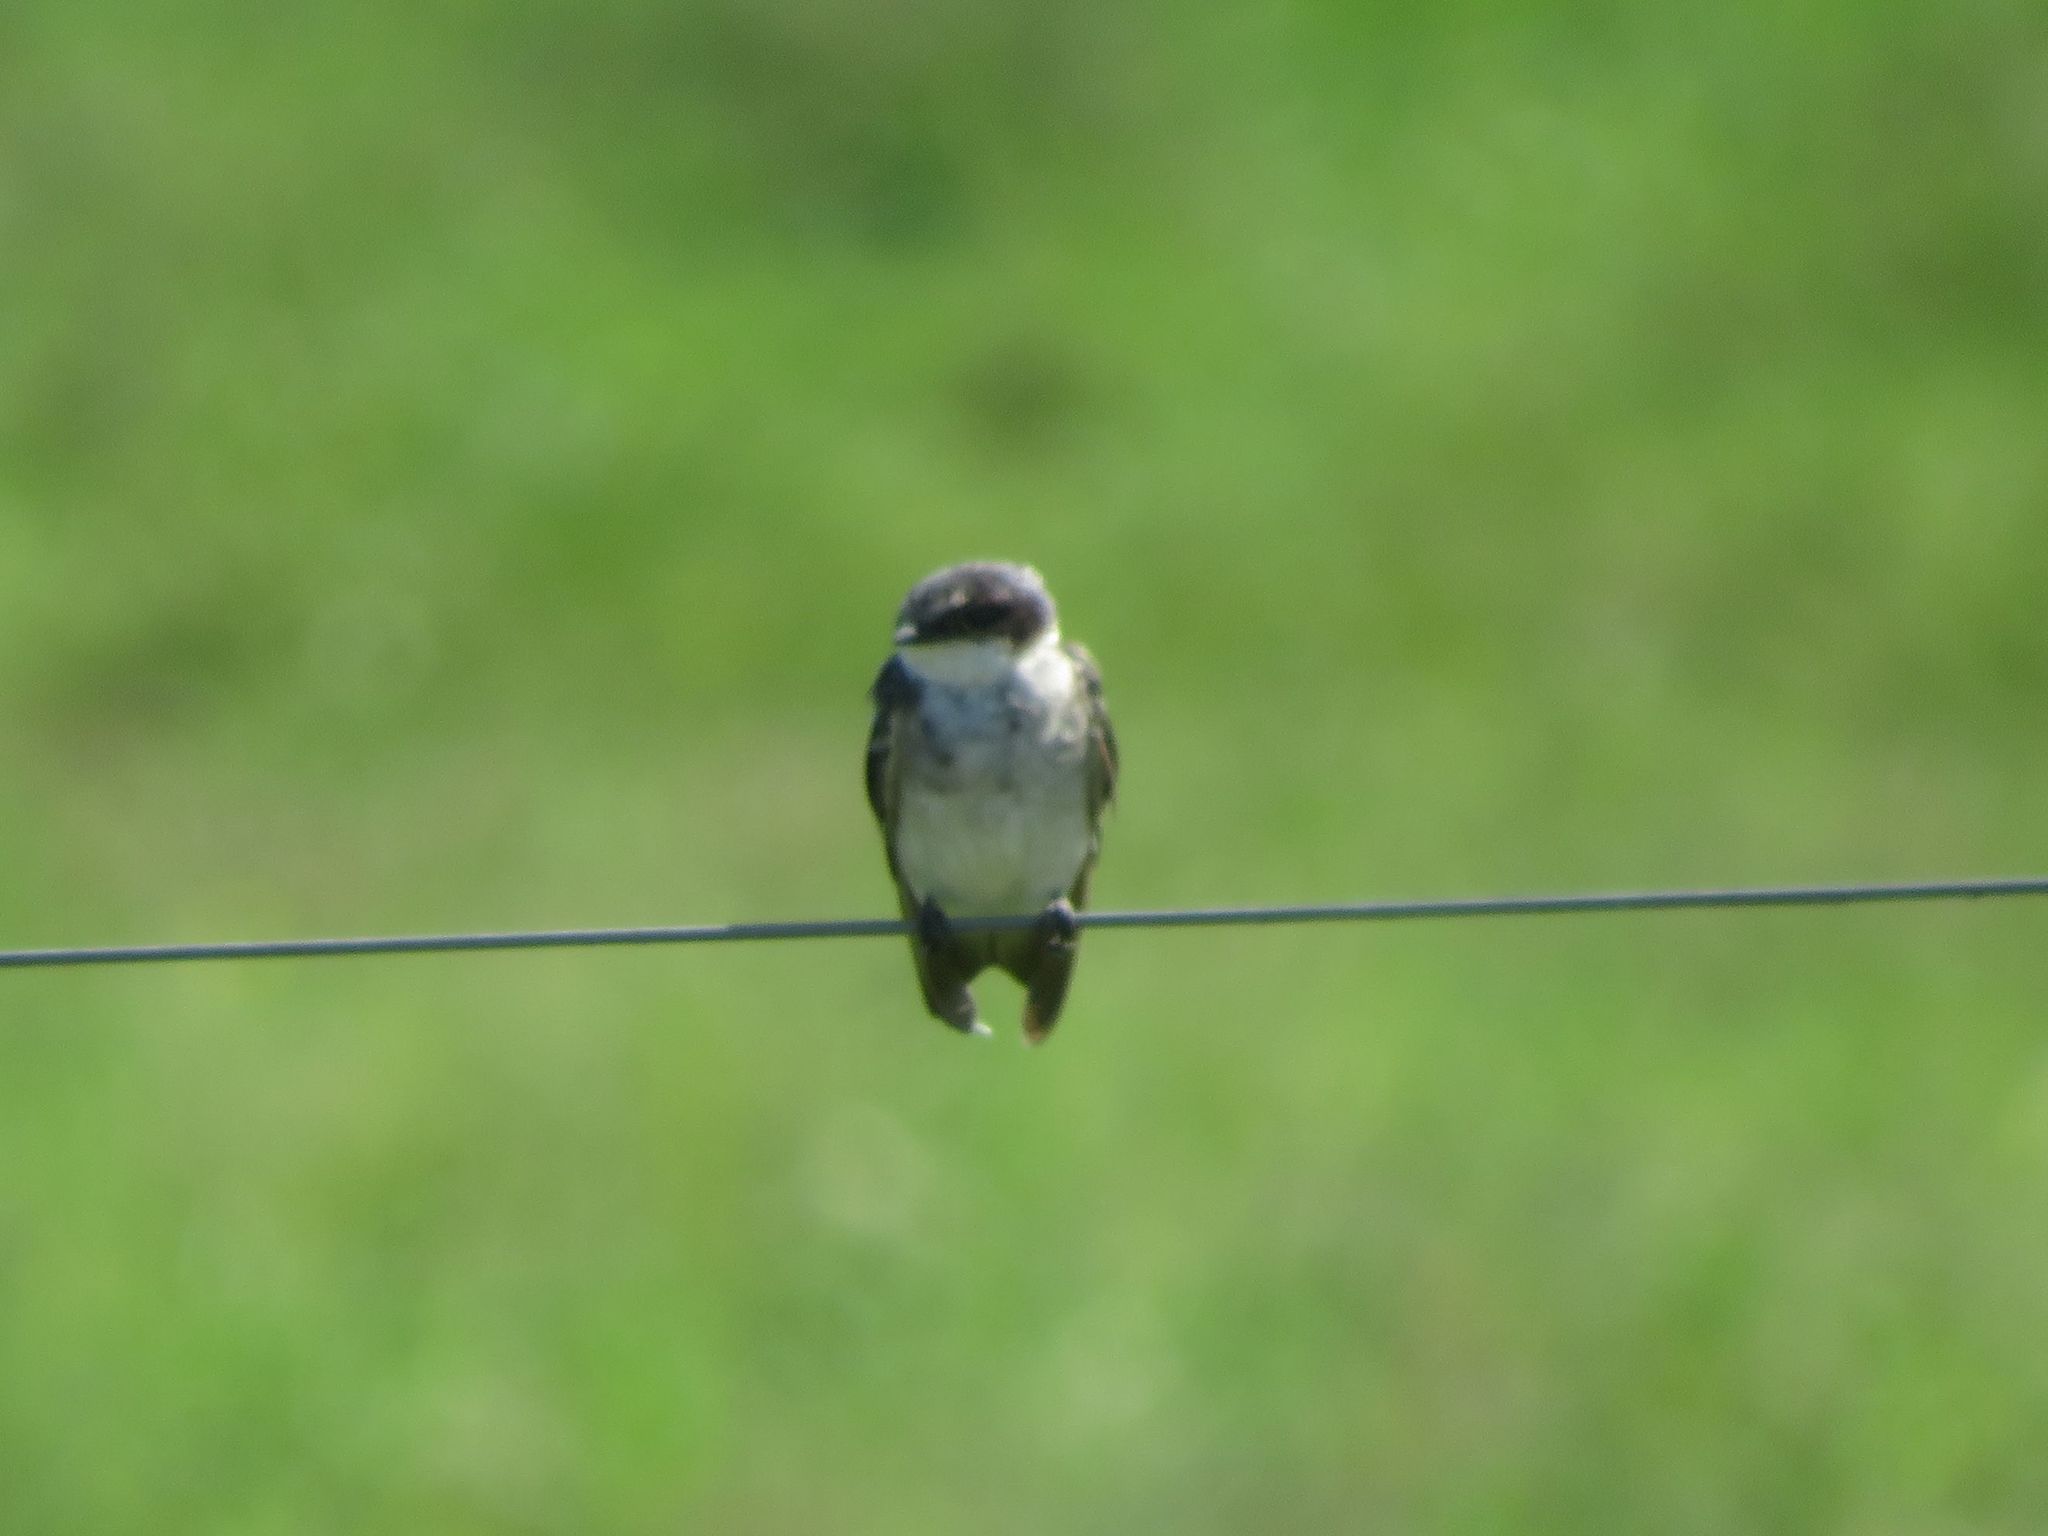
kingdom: Animalia
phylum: Chordata
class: Aves
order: Passeriformes
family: Hirundinidae
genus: Tachycineta
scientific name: Tachycineta leucorrhoa
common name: White-rumped swallow
